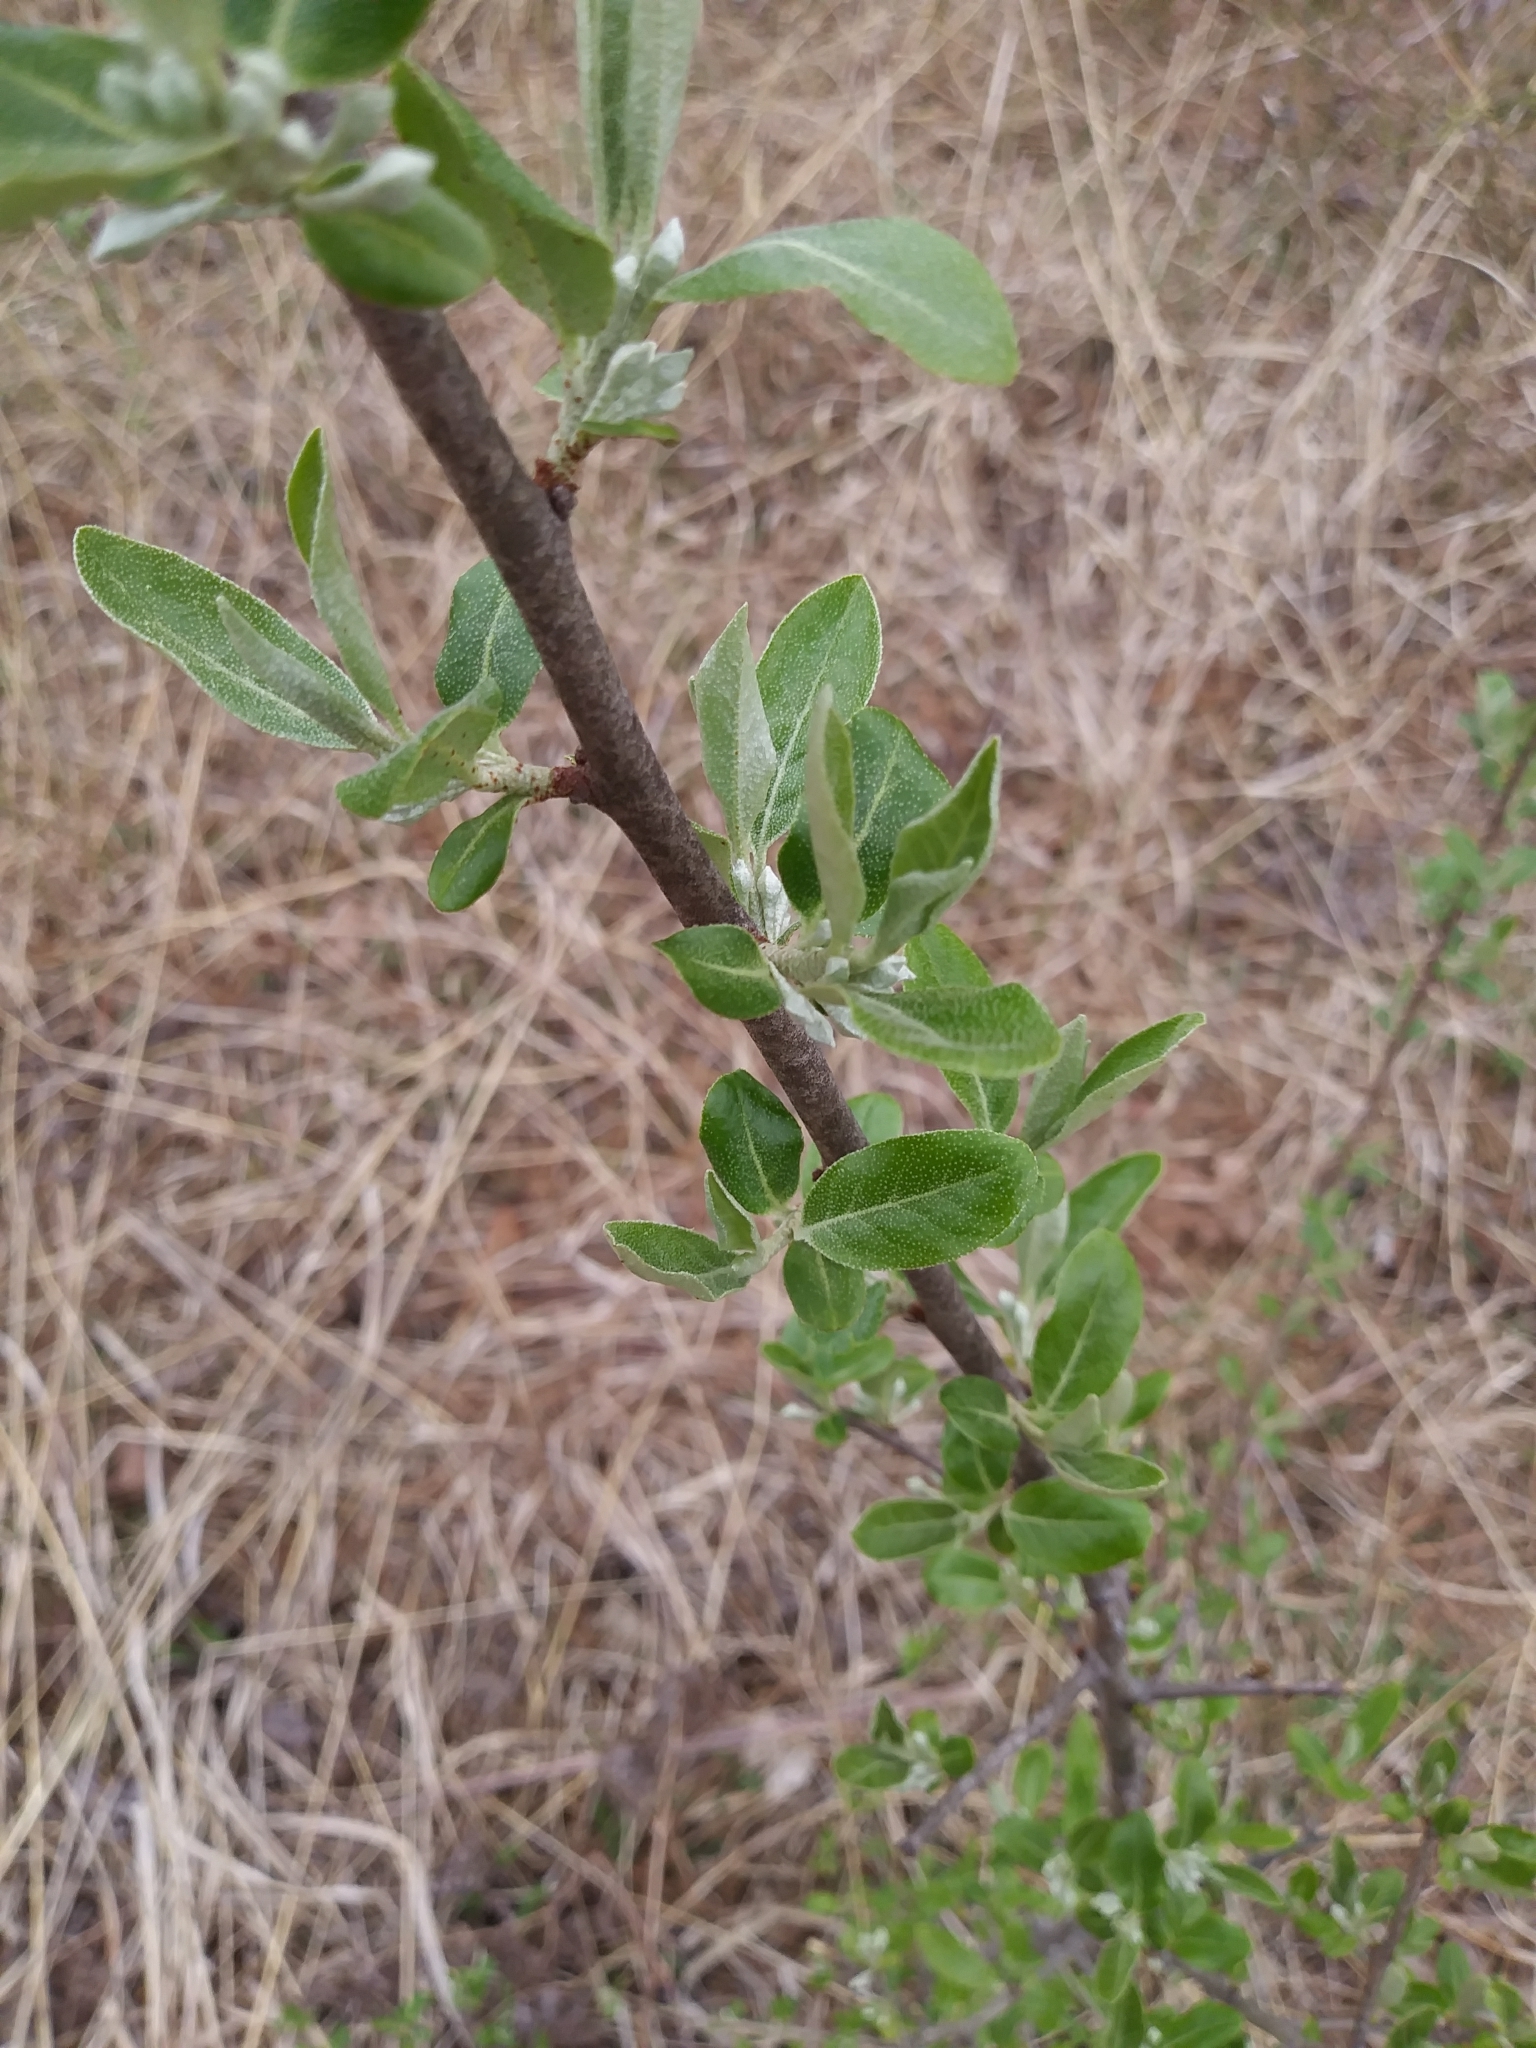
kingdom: Plantae
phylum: Tracheophyta
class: Magnoliopsida
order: Rosales
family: Elaeagnaceae
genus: Elaeagnus
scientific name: Elaeagnus umbellata
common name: Autumn olive
